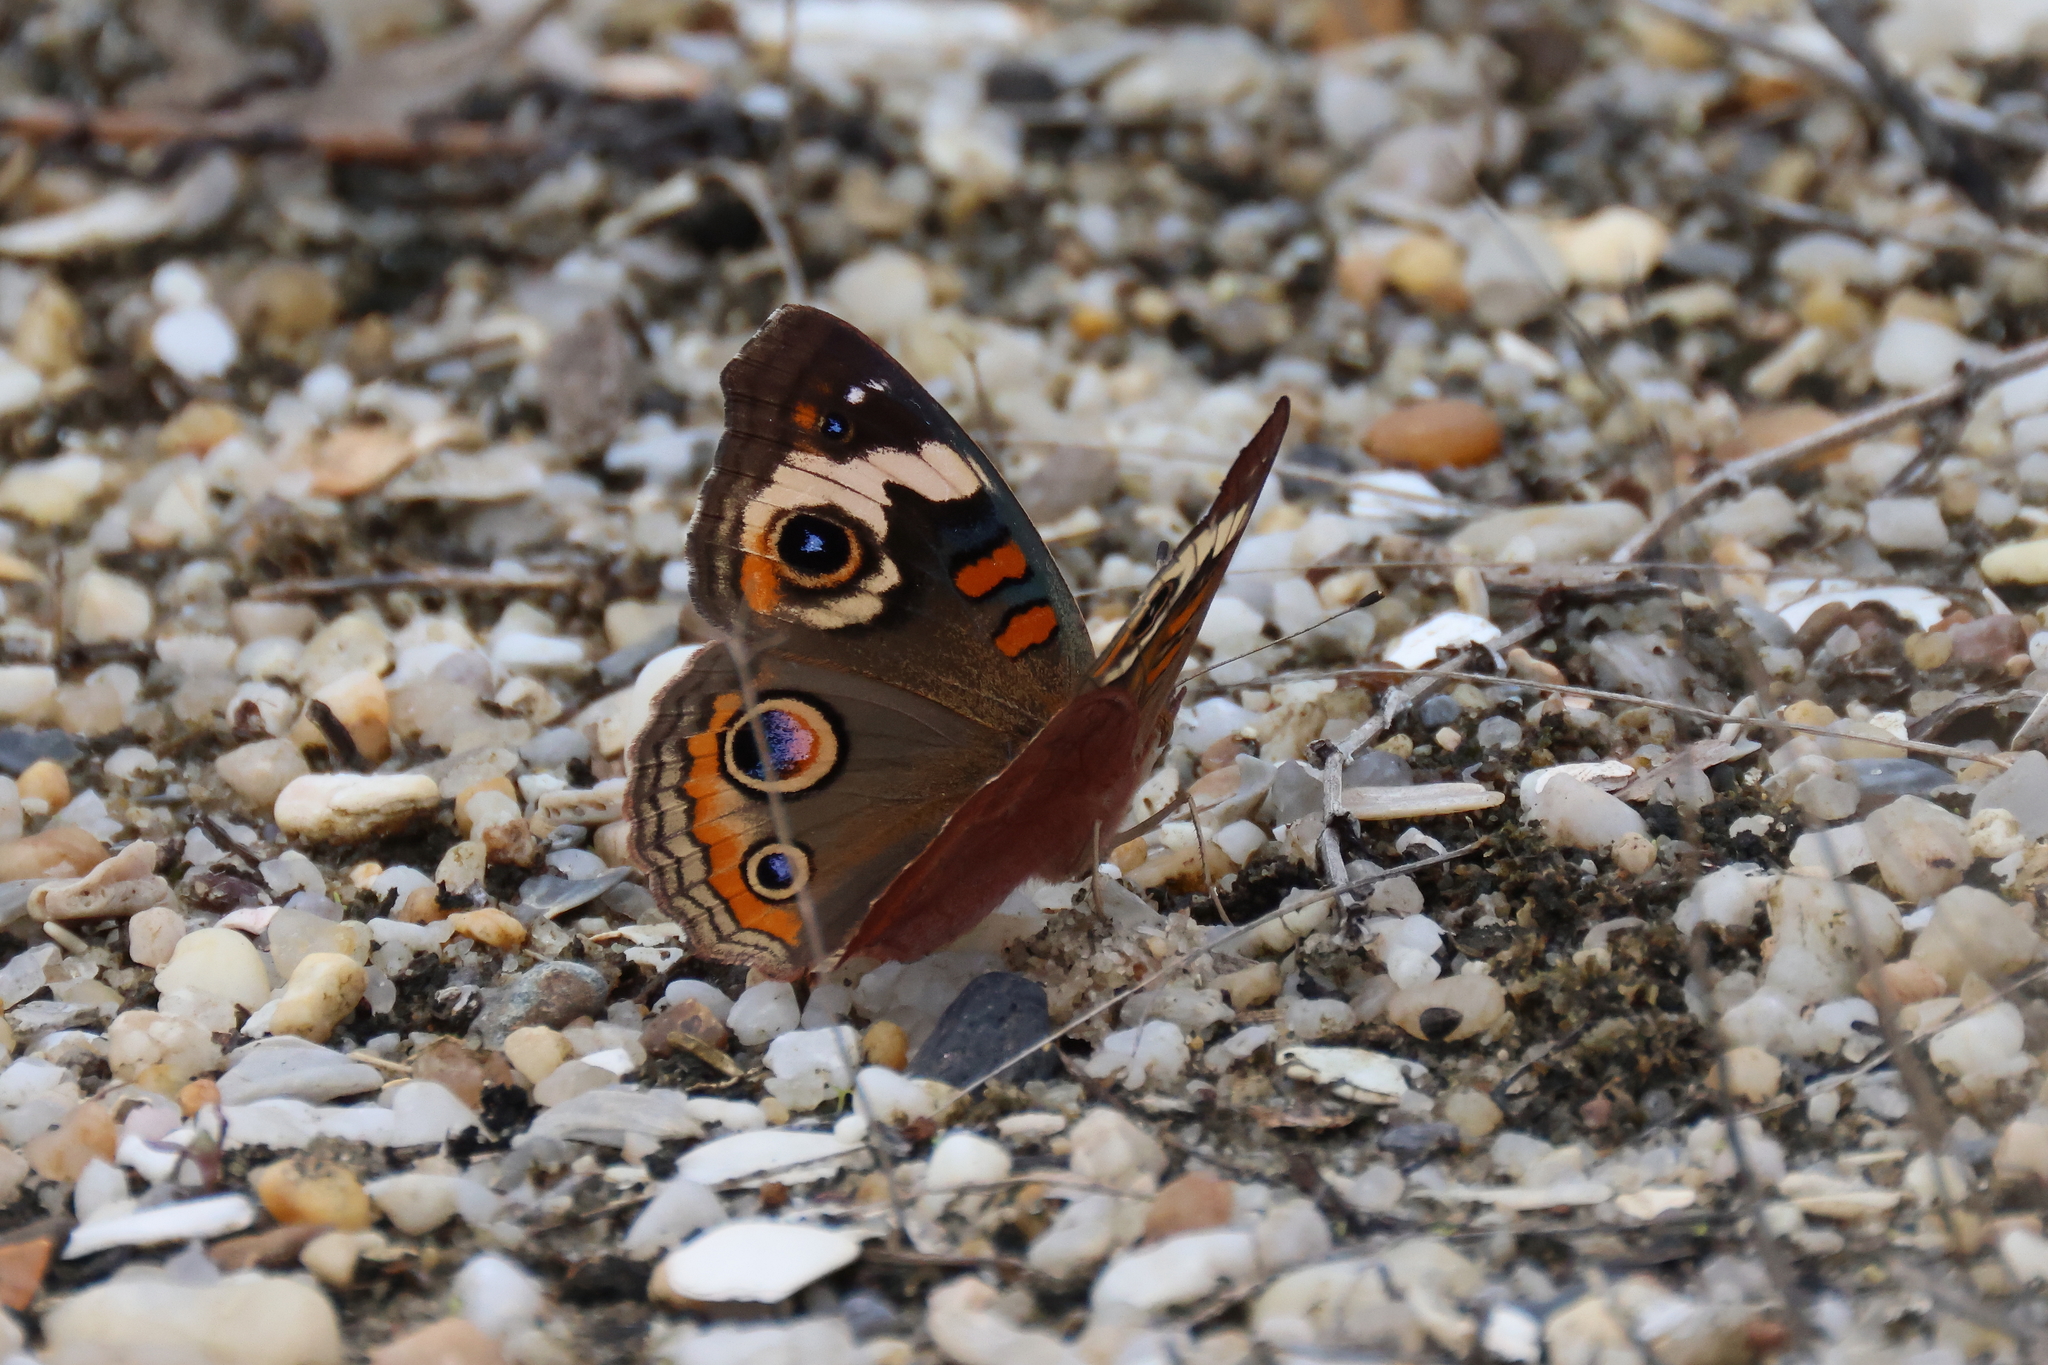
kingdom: Animalia
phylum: Arthropoda
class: Insecta
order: Lepidoptera
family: Nymphalidae
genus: Junonia
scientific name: Junonia coenia
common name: Common buckeye
